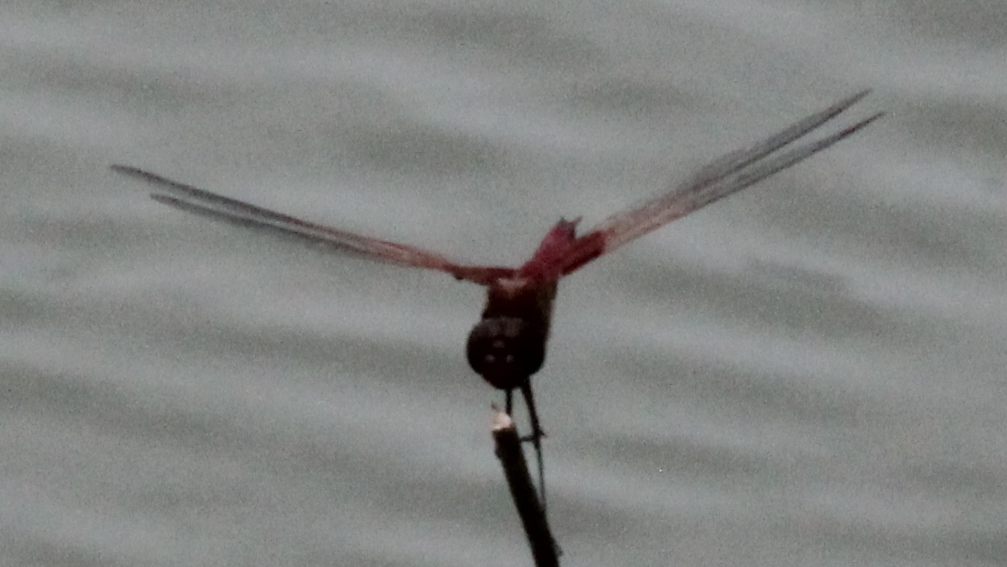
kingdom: Animalia
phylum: Arthropoda
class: Insecta
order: Odonata
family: Libellulidae
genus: Tramea
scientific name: Tramea onusta
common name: Red saddlebags
